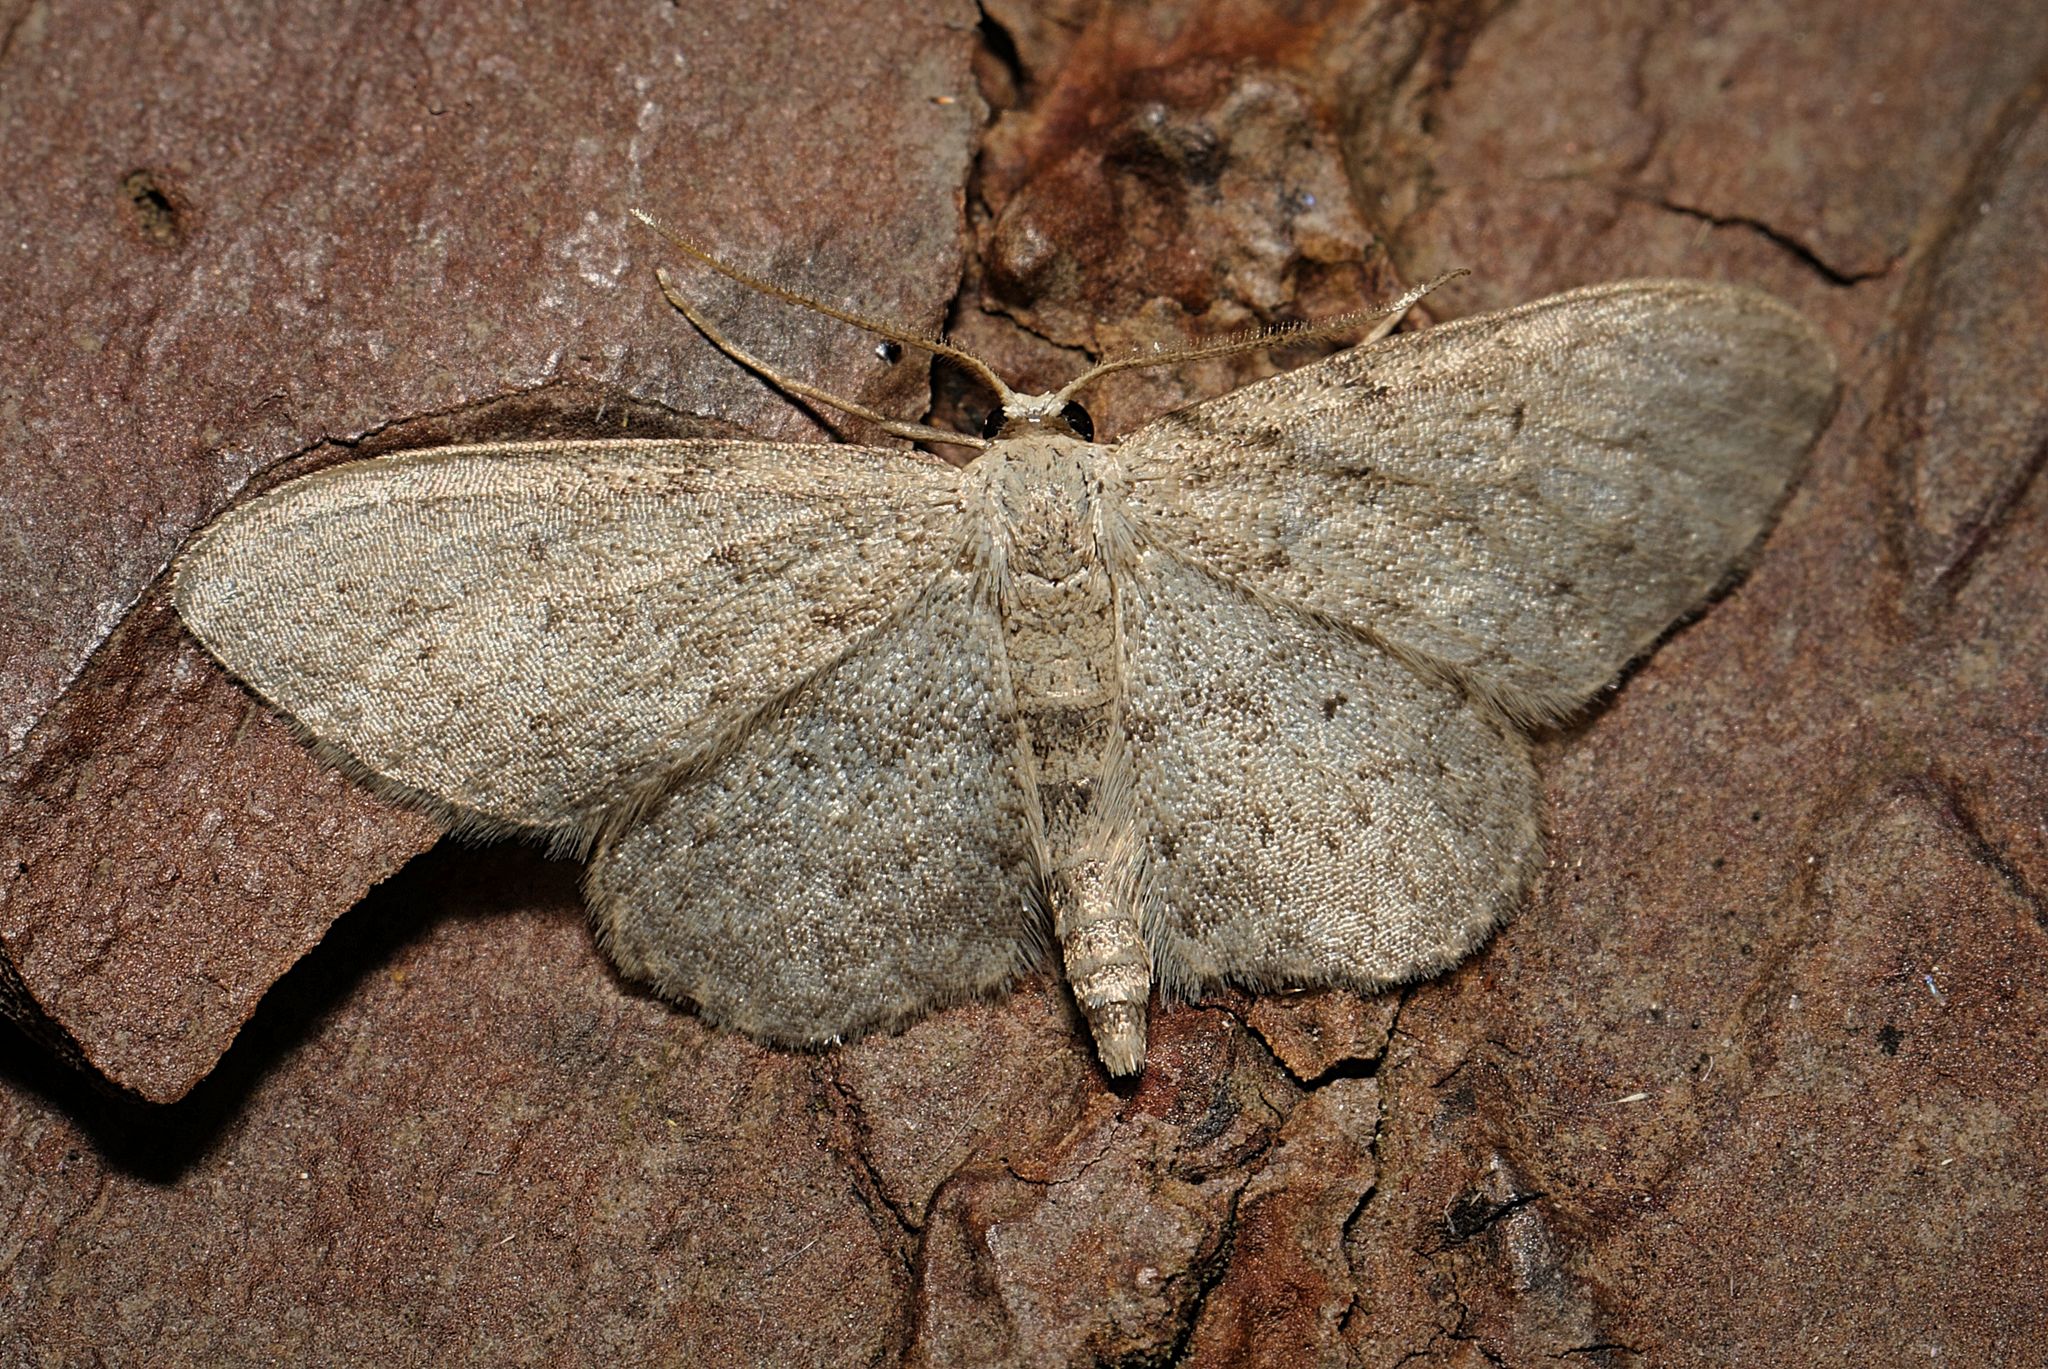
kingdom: Animalia
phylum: Arthropoda
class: Insecta
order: Lepidoptera
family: Geometridae
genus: Idaea
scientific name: Idaea seriata
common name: Small dusty wave
